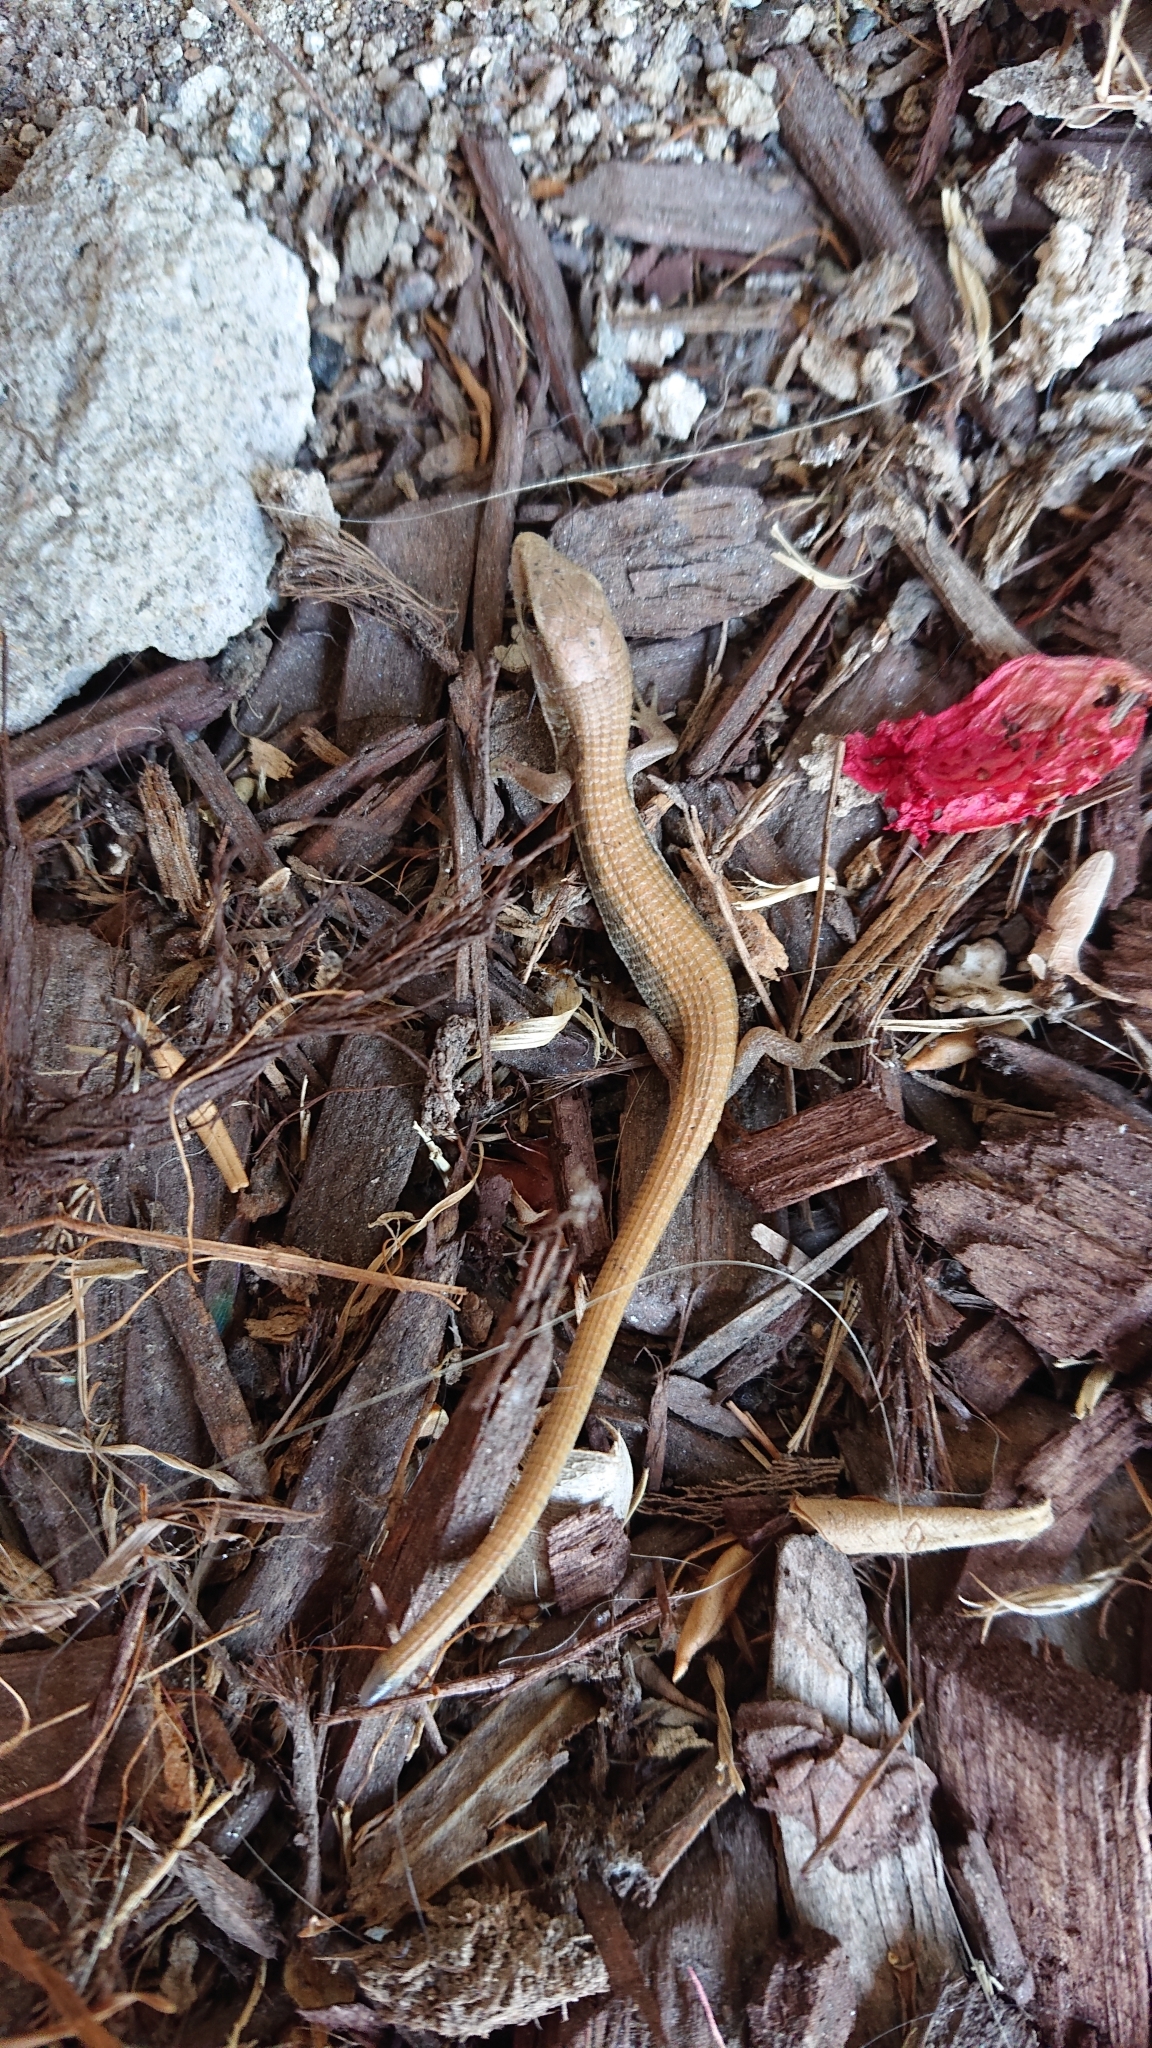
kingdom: Animalia
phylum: Chordata
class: Squamata
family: Anguidae
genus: Elgaria
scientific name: Elgaria multicarinata
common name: Southern alligator lizard
